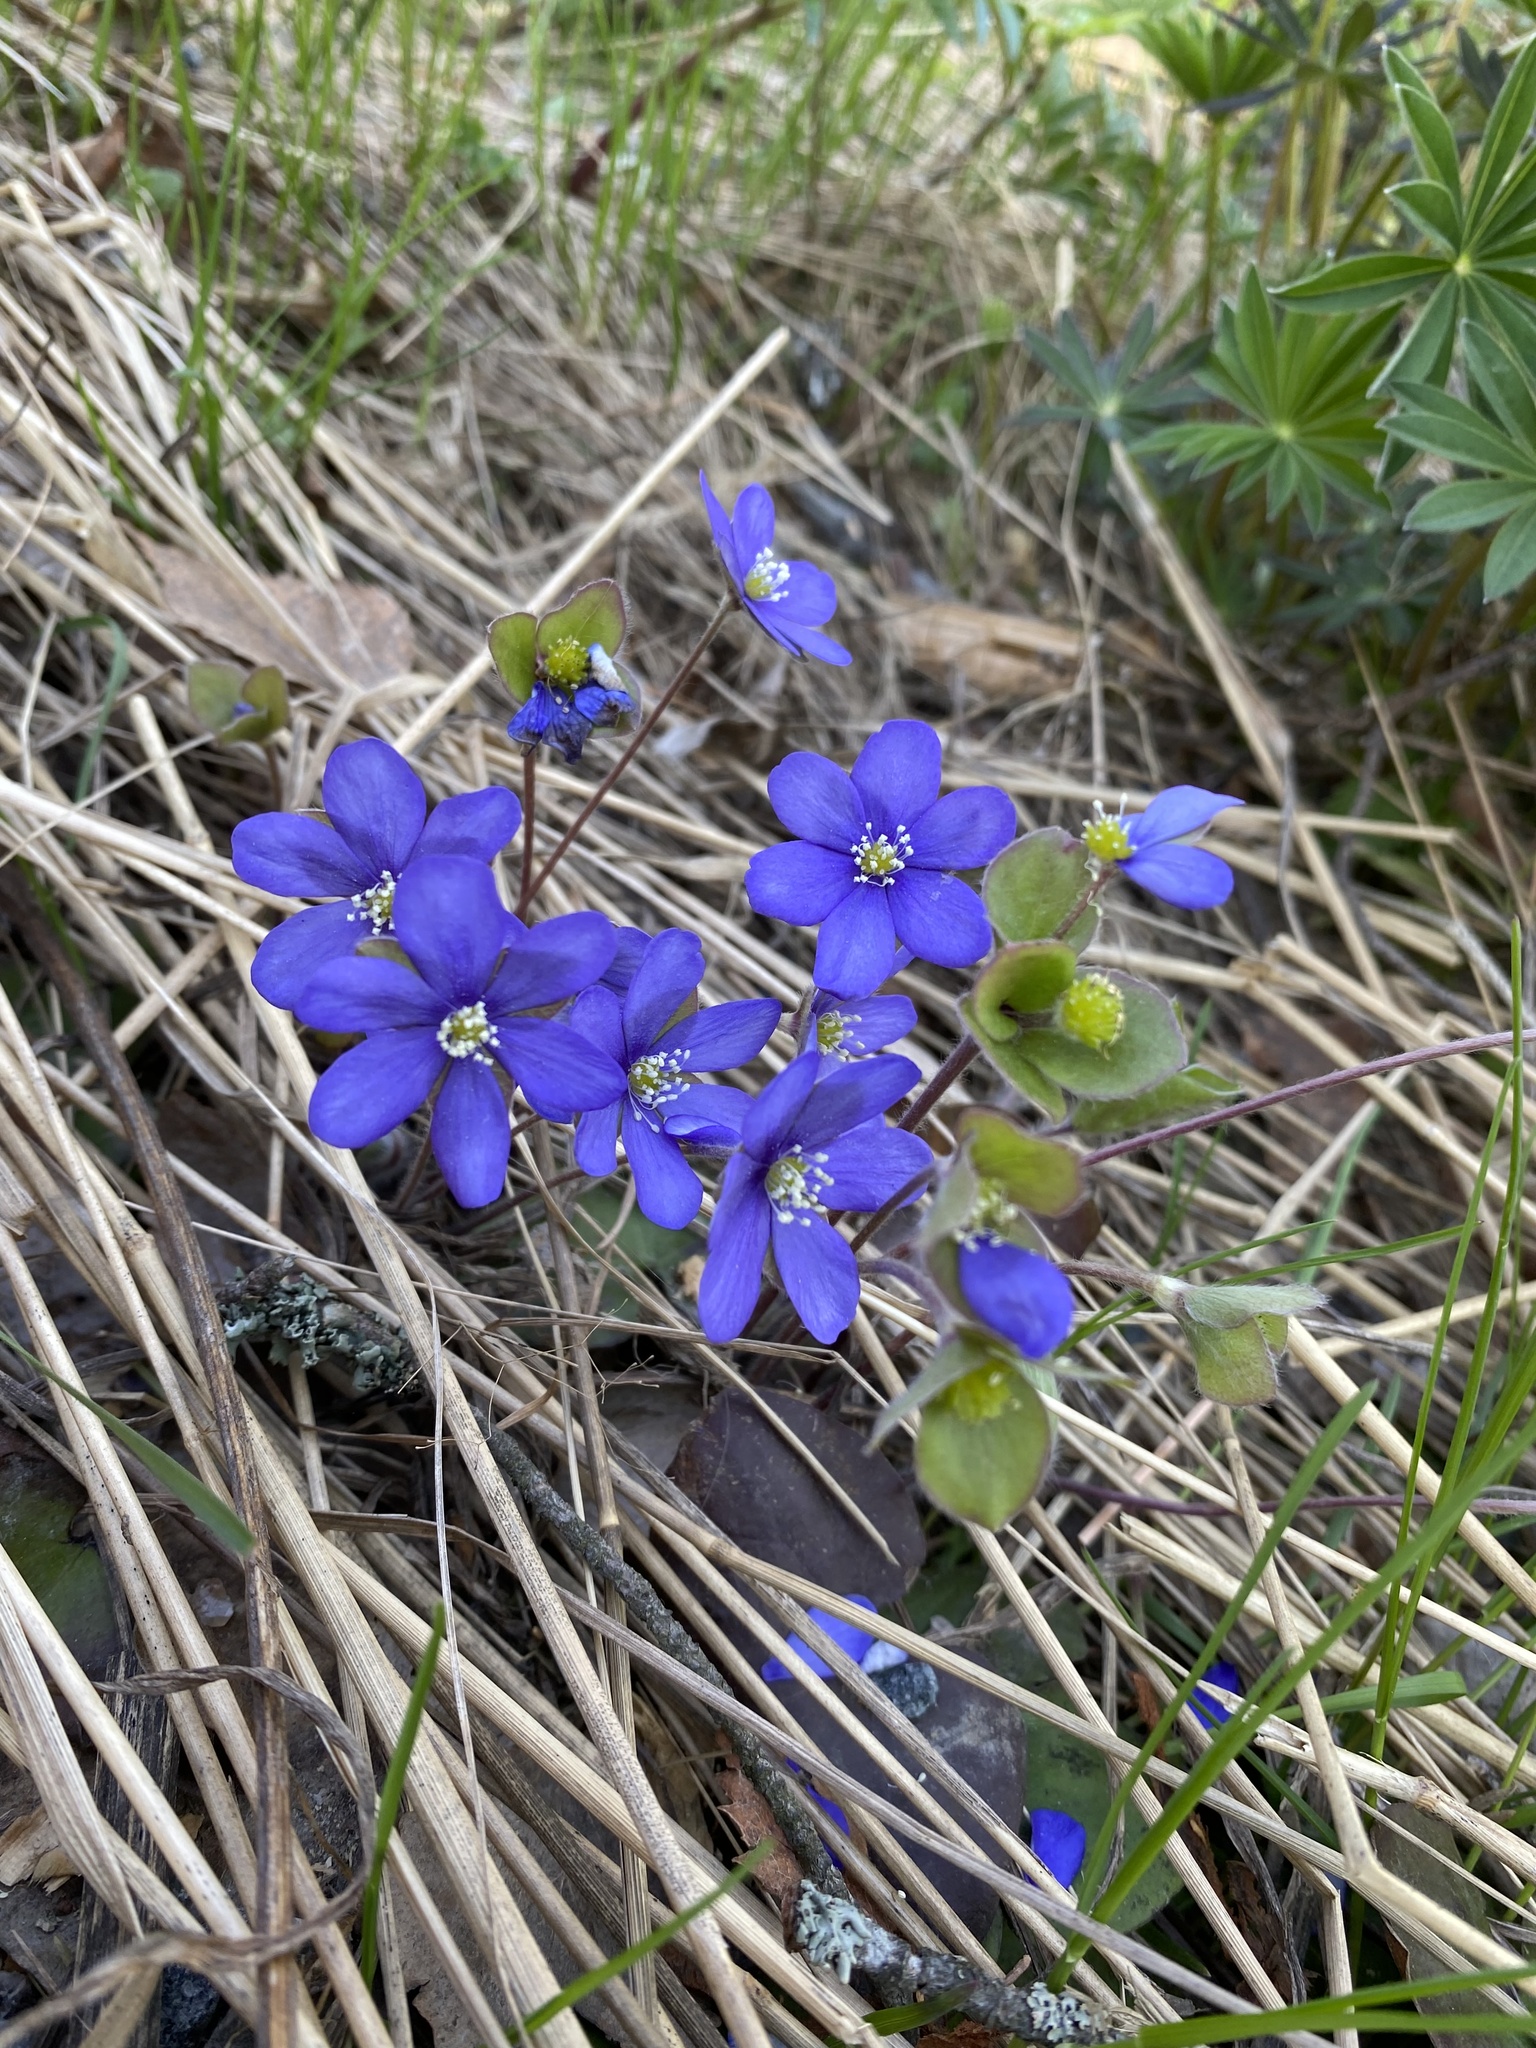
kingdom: Plantae
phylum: Tracheophyta
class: Magnoliopsida
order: Ranunculales
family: Ranunculaceae
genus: Hepatica
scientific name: Hepatica nobilis
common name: Liverleaf
